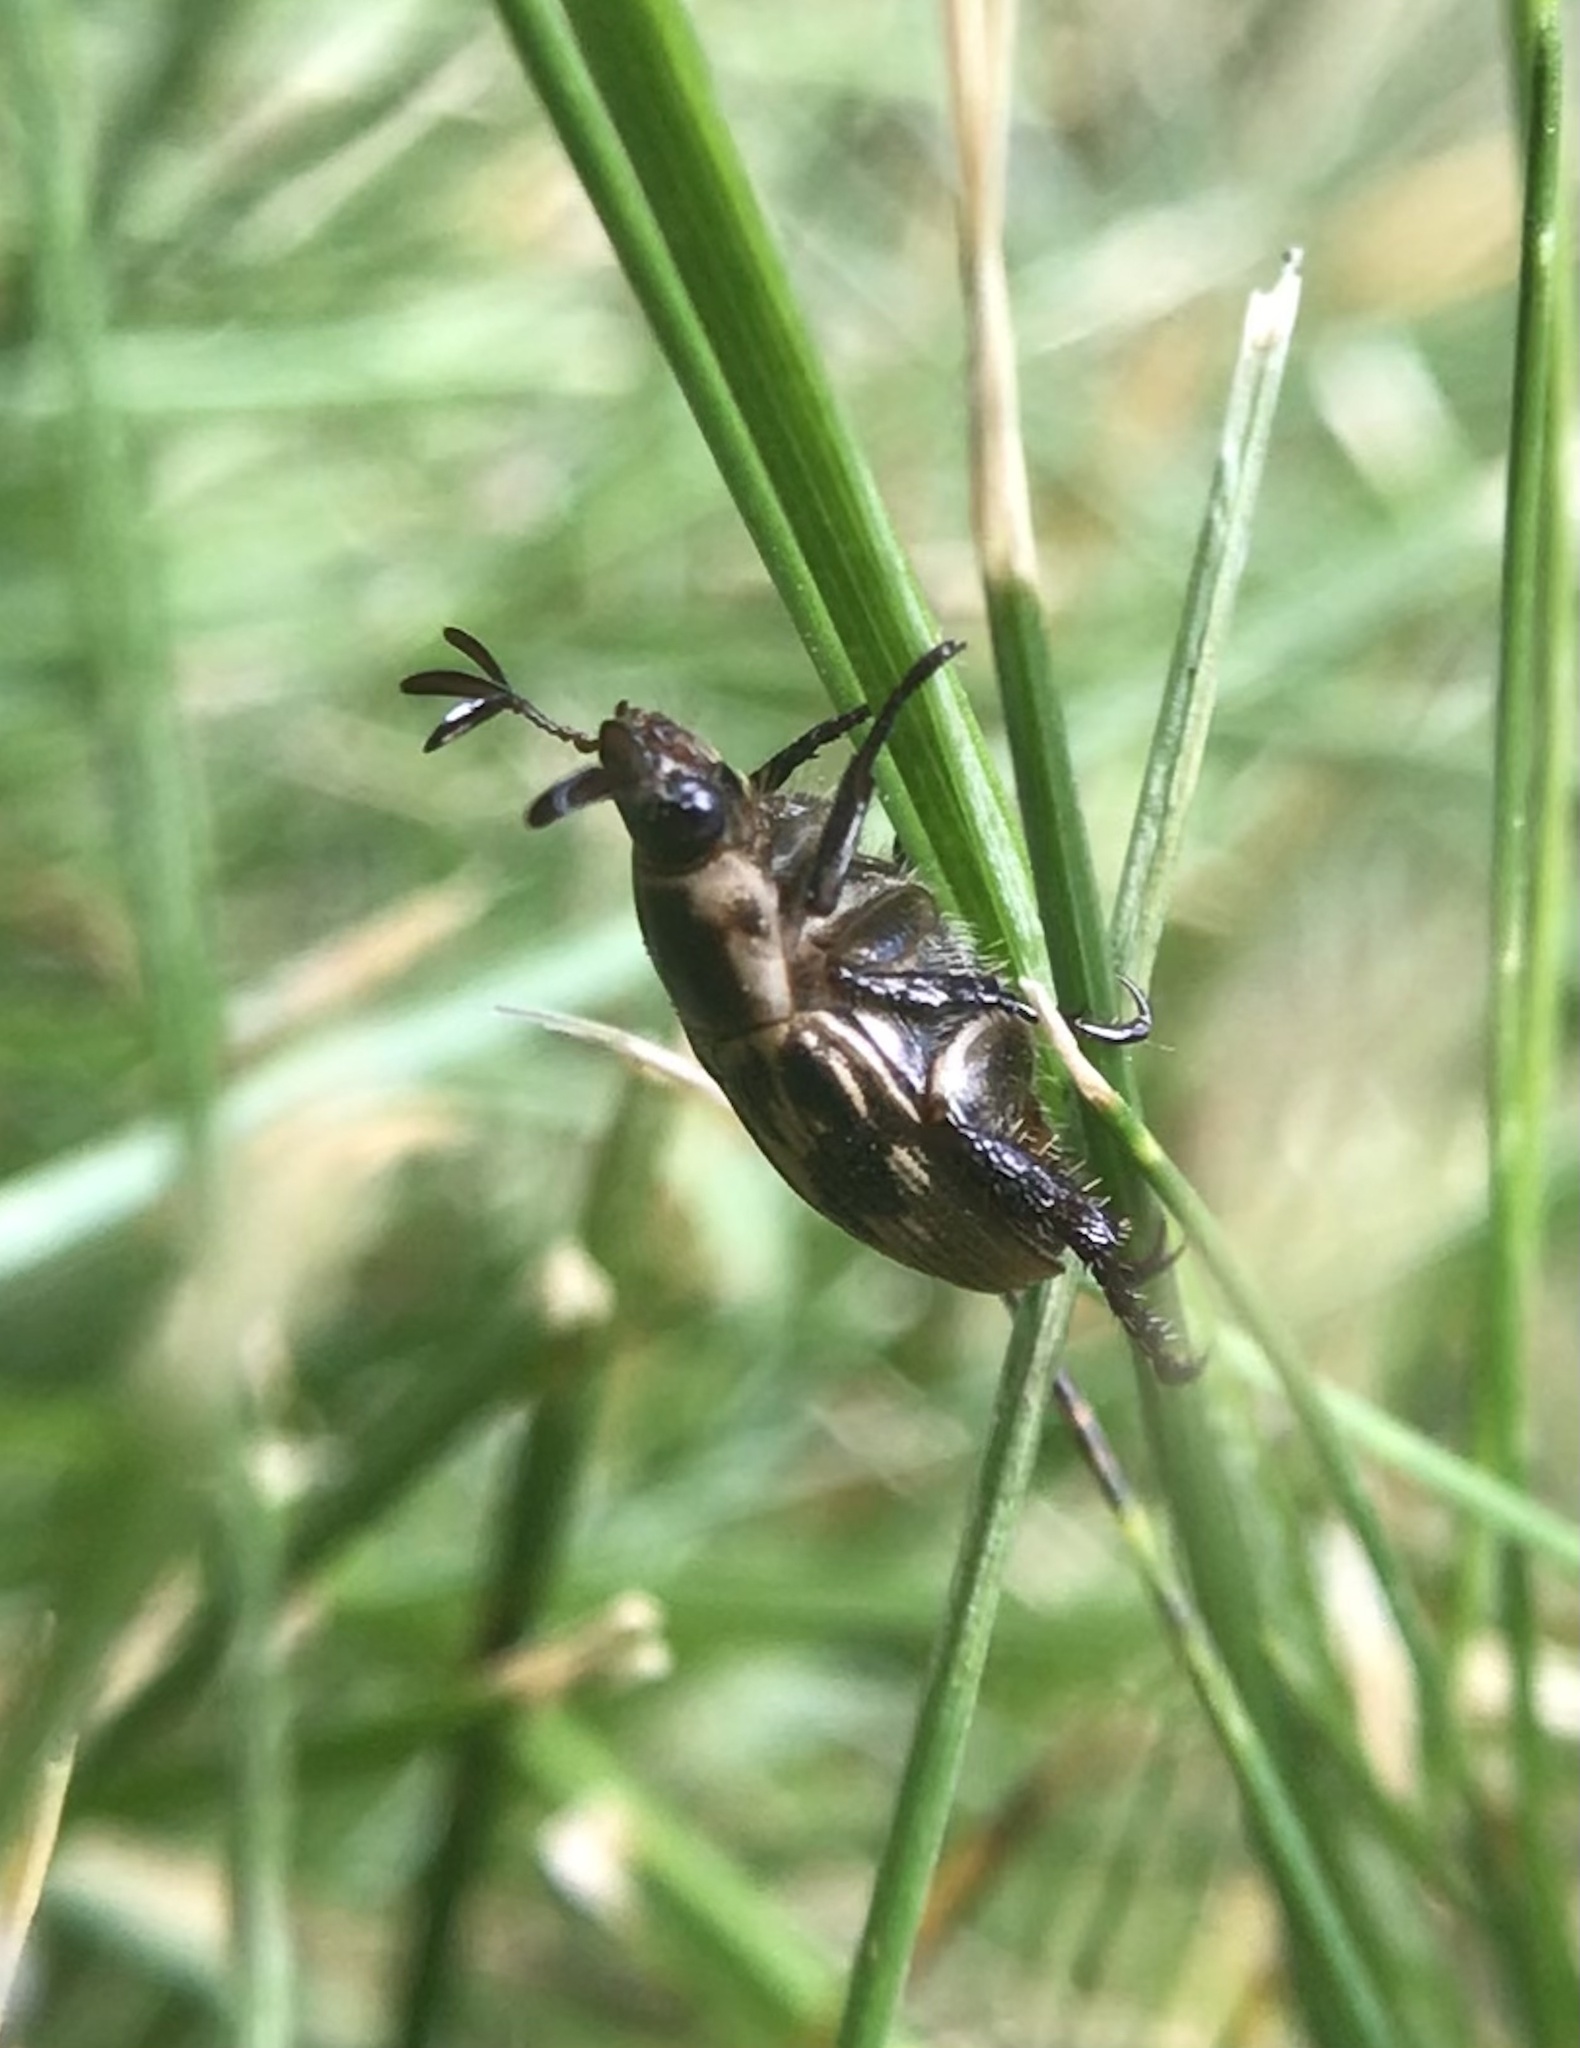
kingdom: Animalia
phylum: Arthropoda
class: Insecta
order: Coleoptera
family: Scarabaeidae
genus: Exomala
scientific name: Exomala orientalis
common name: Oriental beetle
